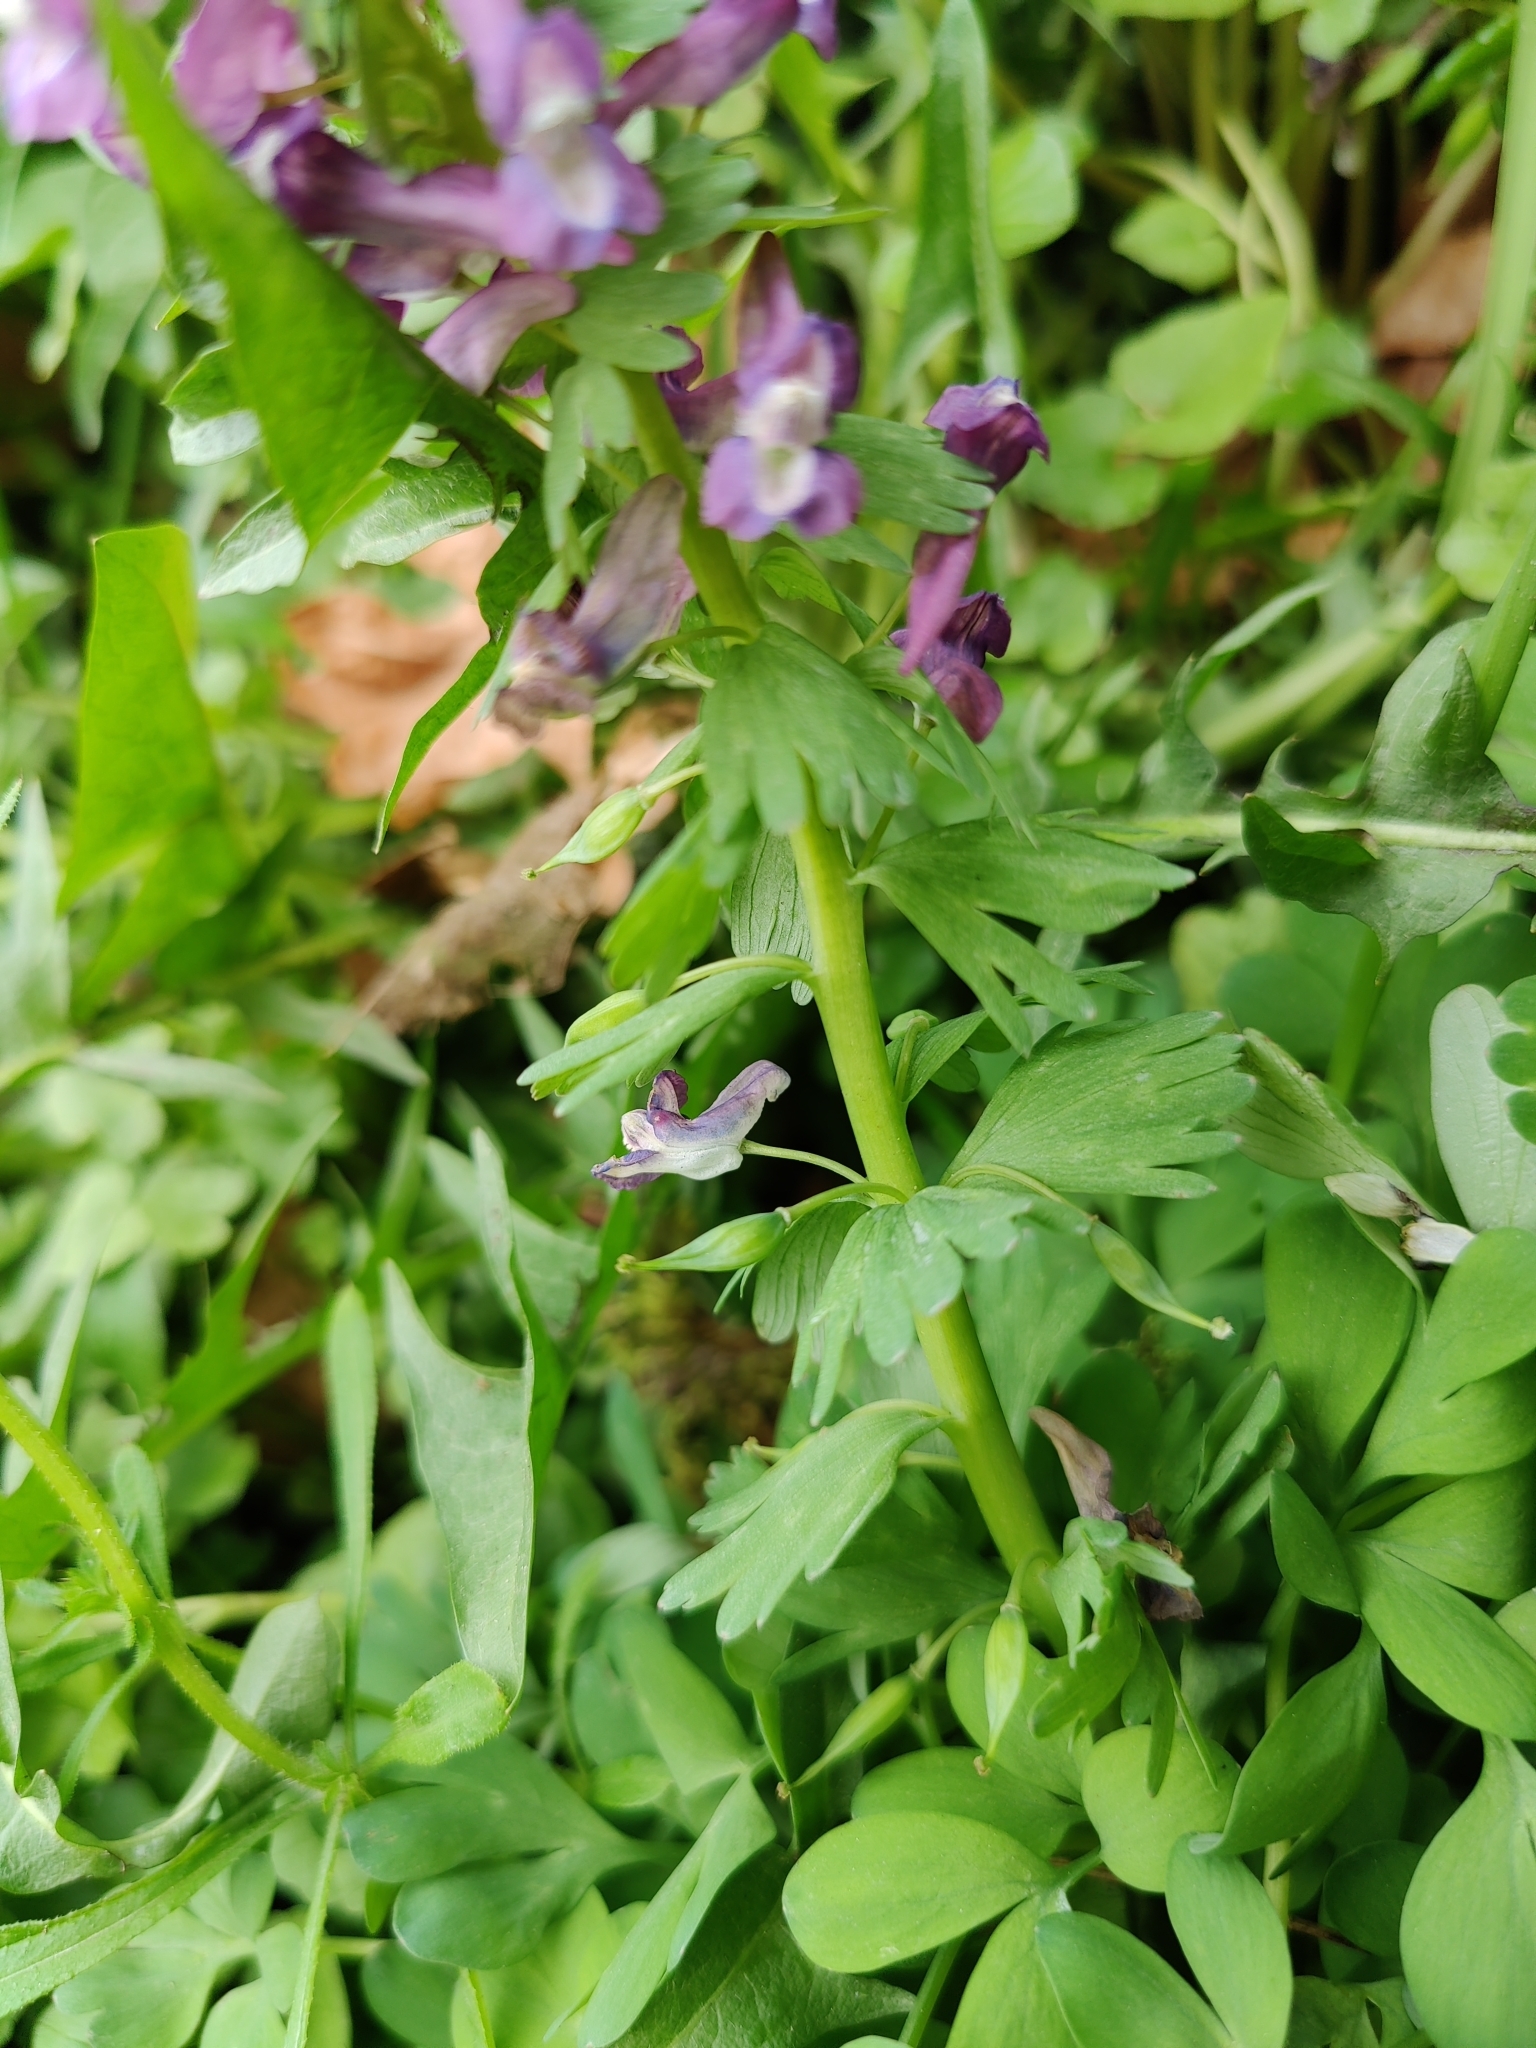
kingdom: Plantae
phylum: Tracheophyta
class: Magnoliopsida
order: Ranunculales
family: Papaveraceae
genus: Corydalis
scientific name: Corydalis solida
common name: Bird-in-a-bush
